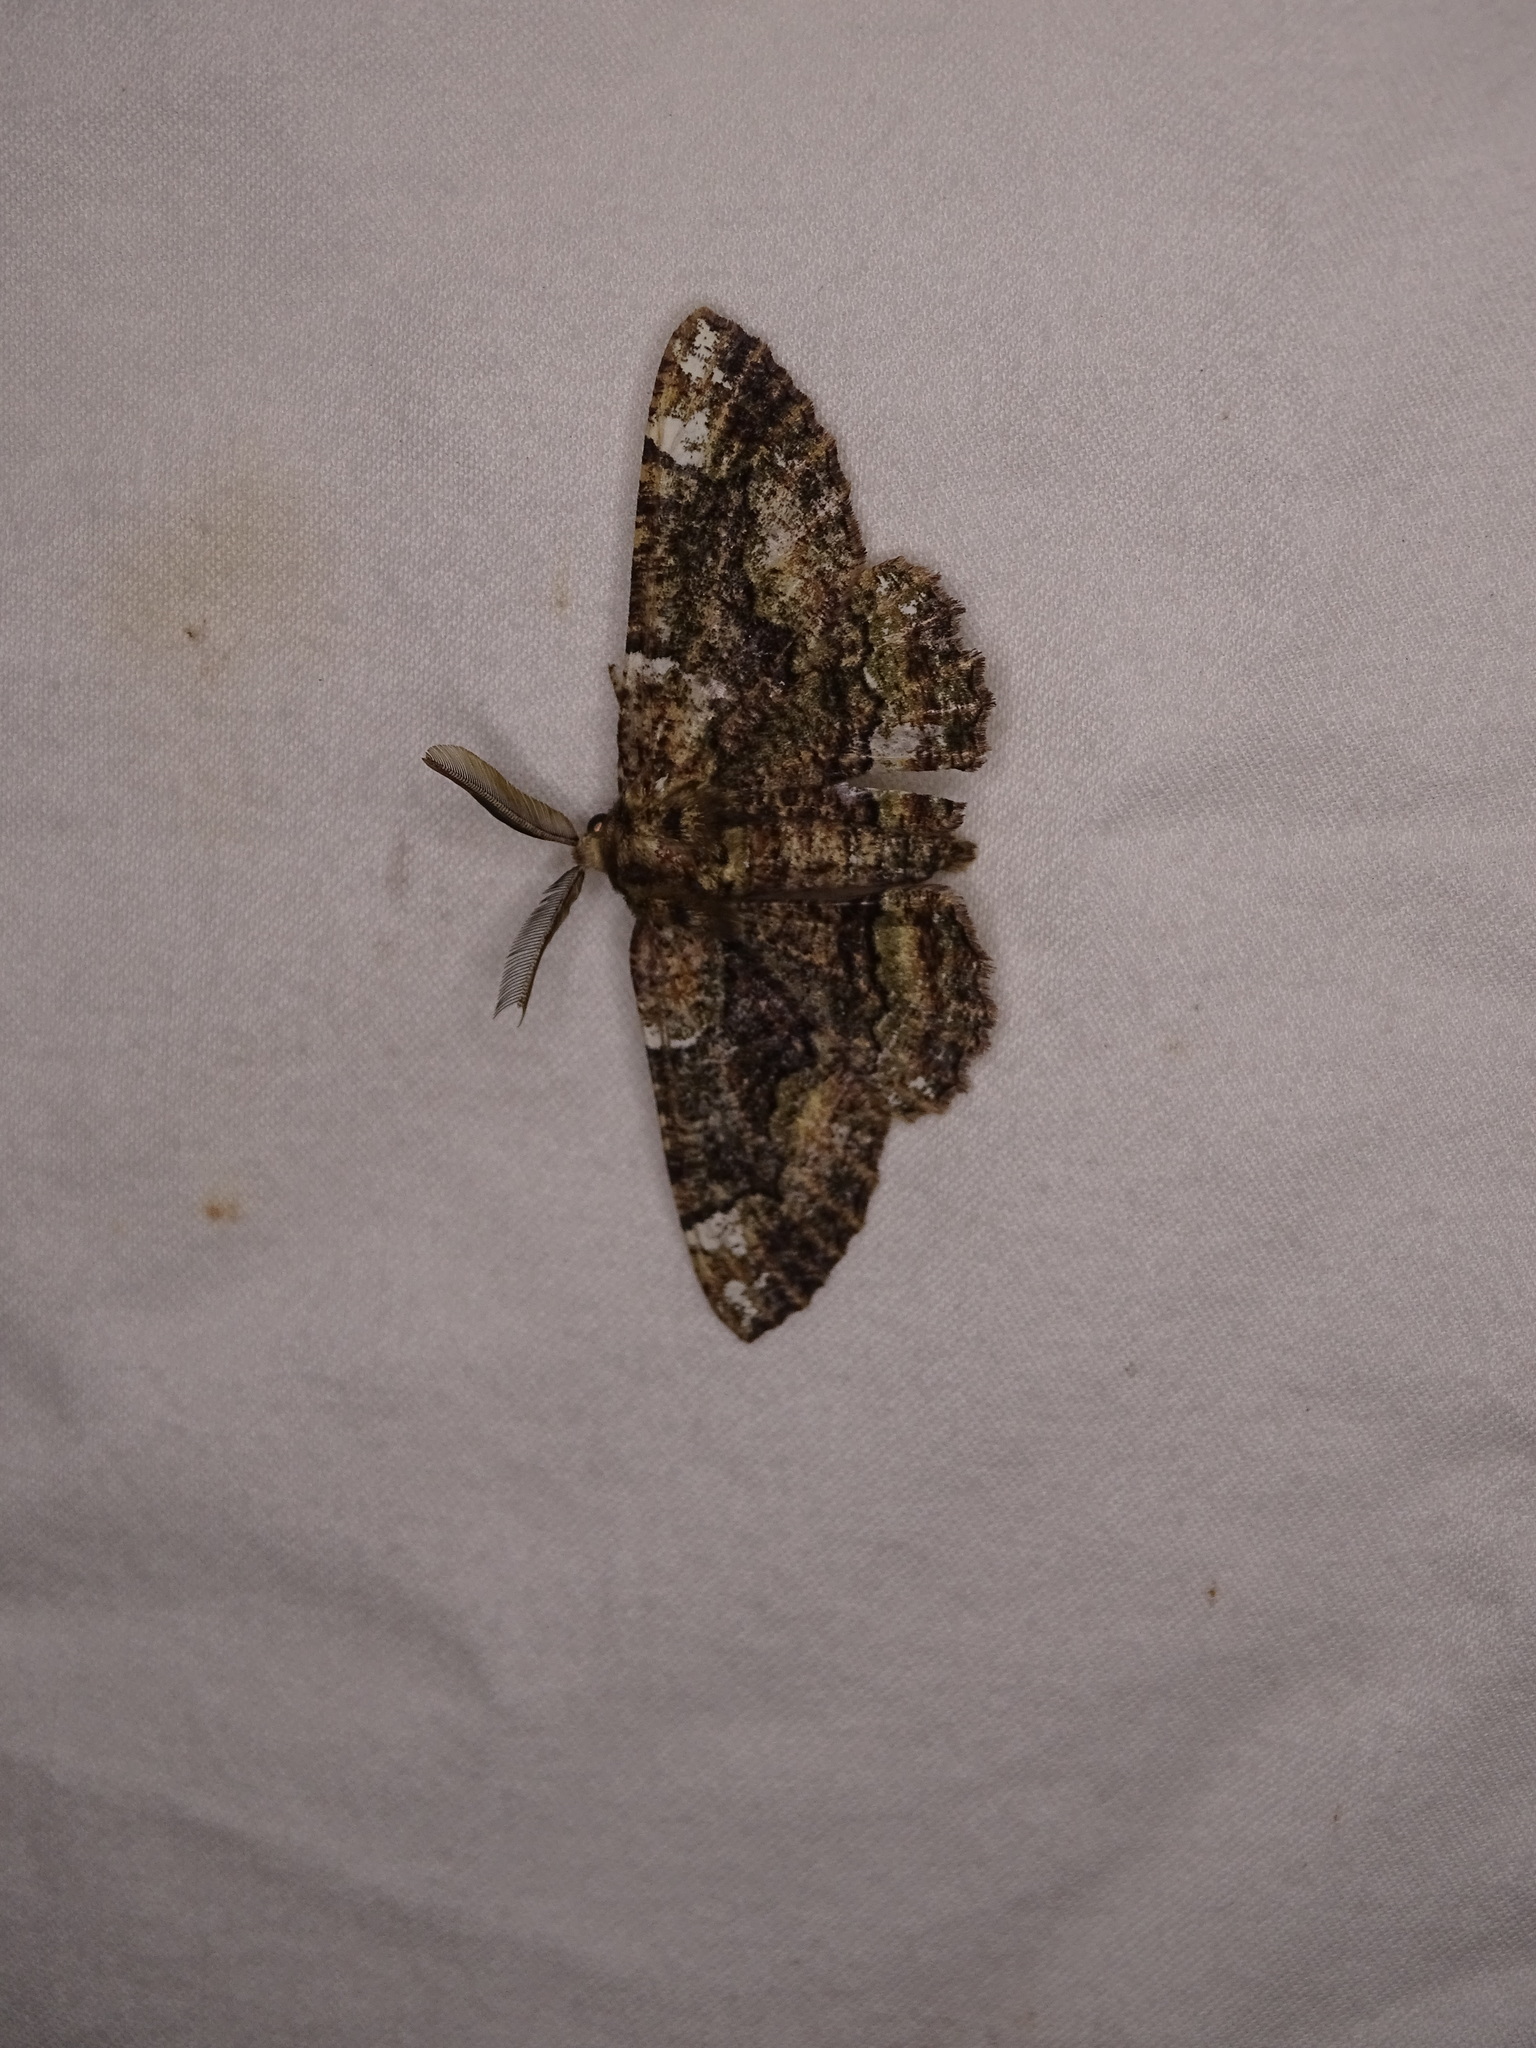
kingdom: Animalia
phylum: Arthropoda
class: Insecta
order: Lepidoptera
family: Geometridae
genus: Phaeoura
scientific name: Phaeoura quernaria
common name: Oak beauty
